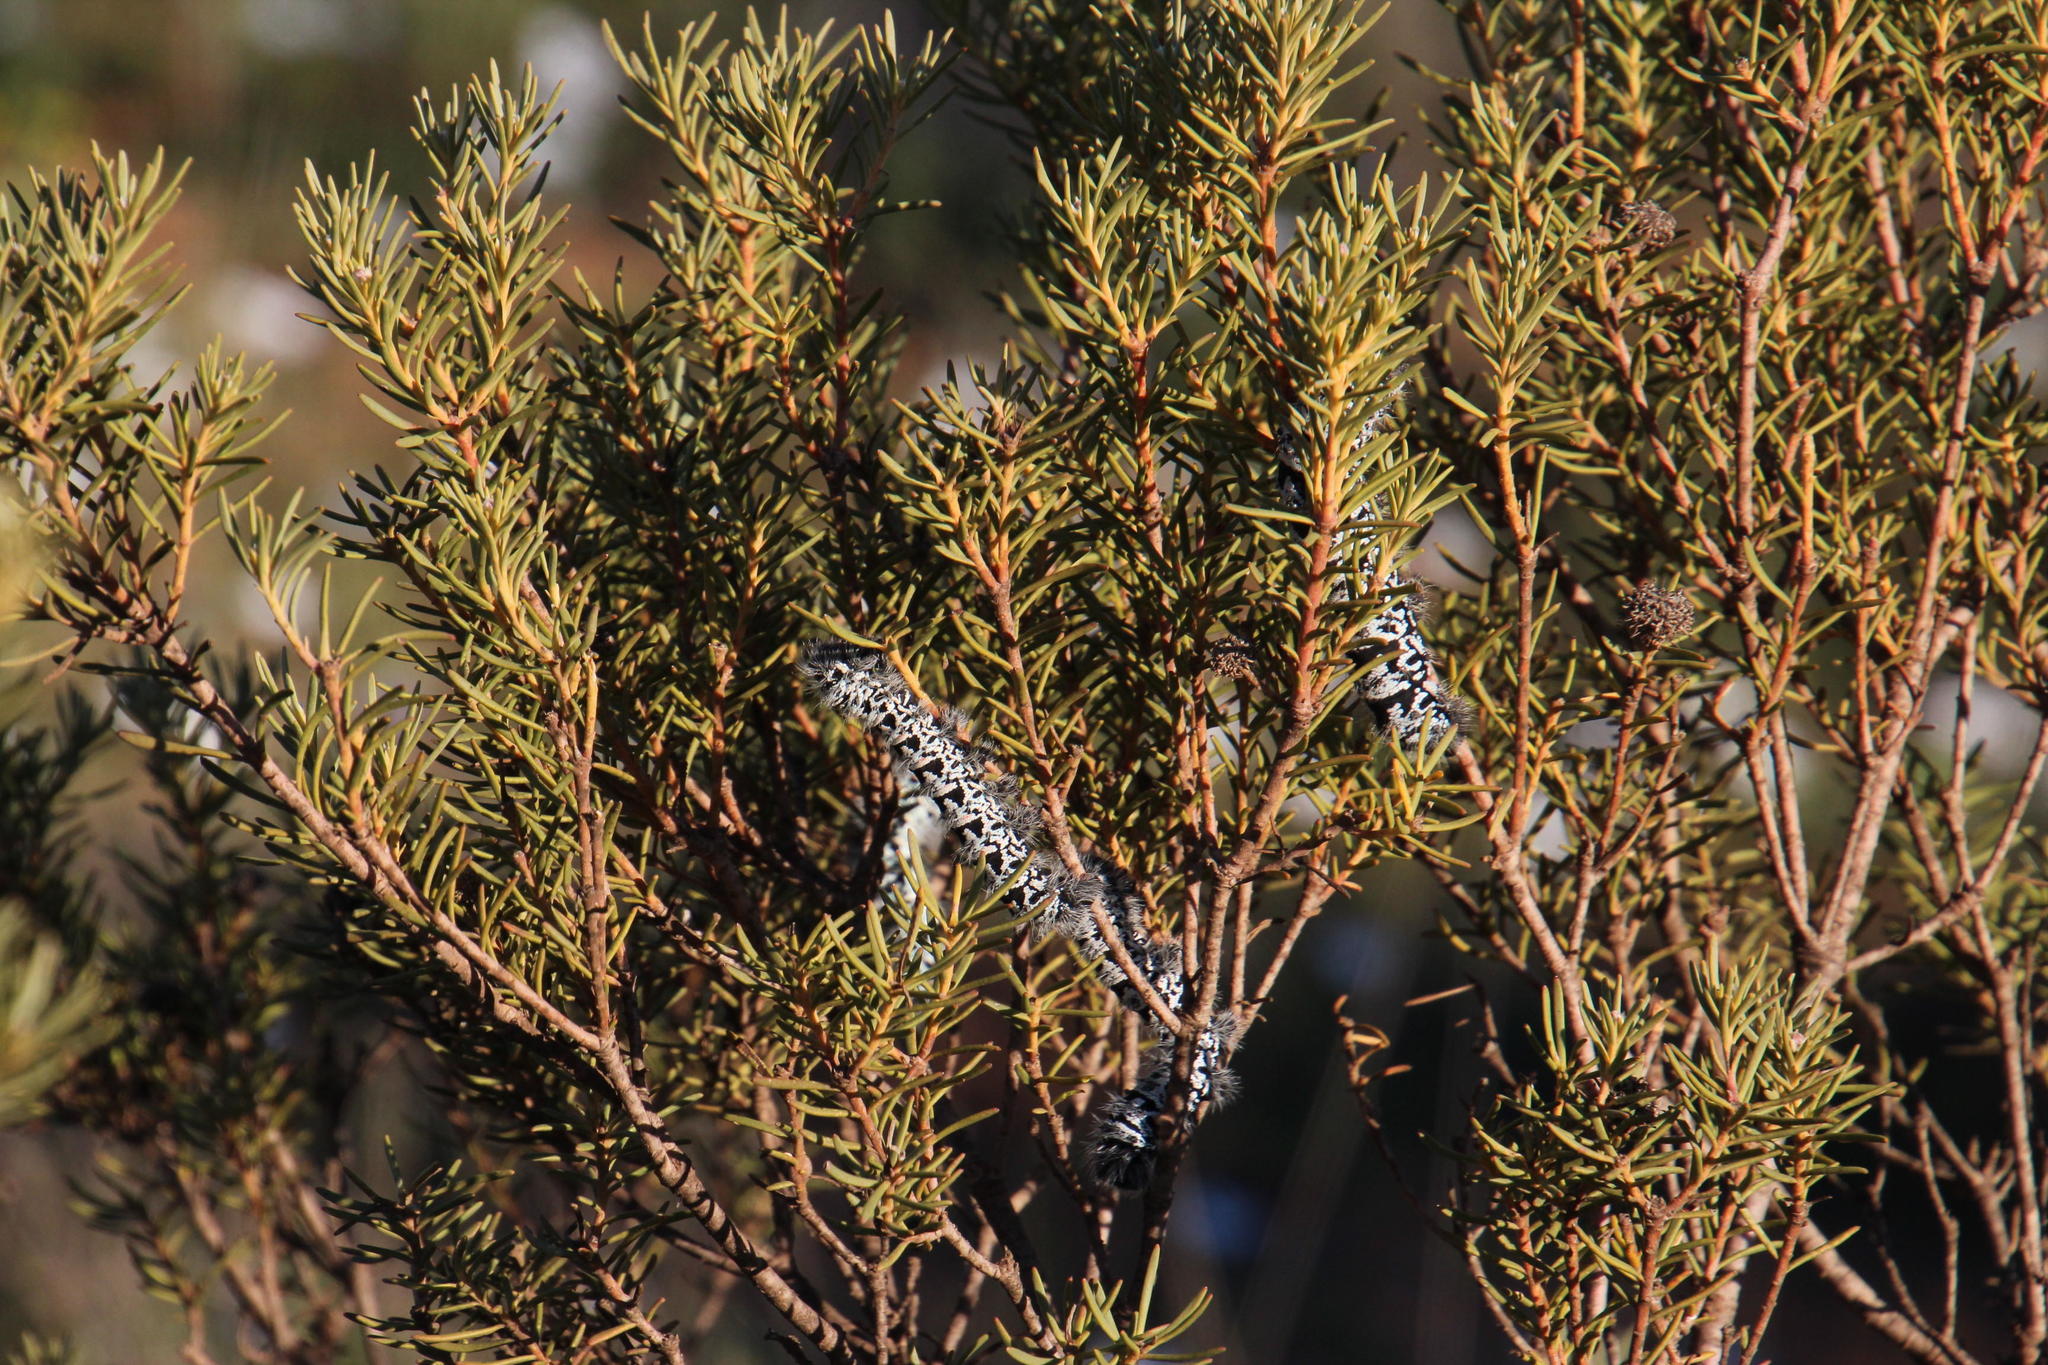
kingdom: Animalia
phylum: Arthropoda
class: Insecta
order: Lepidoptera
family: Saturniidae
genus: Gonimbrasia
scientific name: Gonimbrasia tyrrhea
